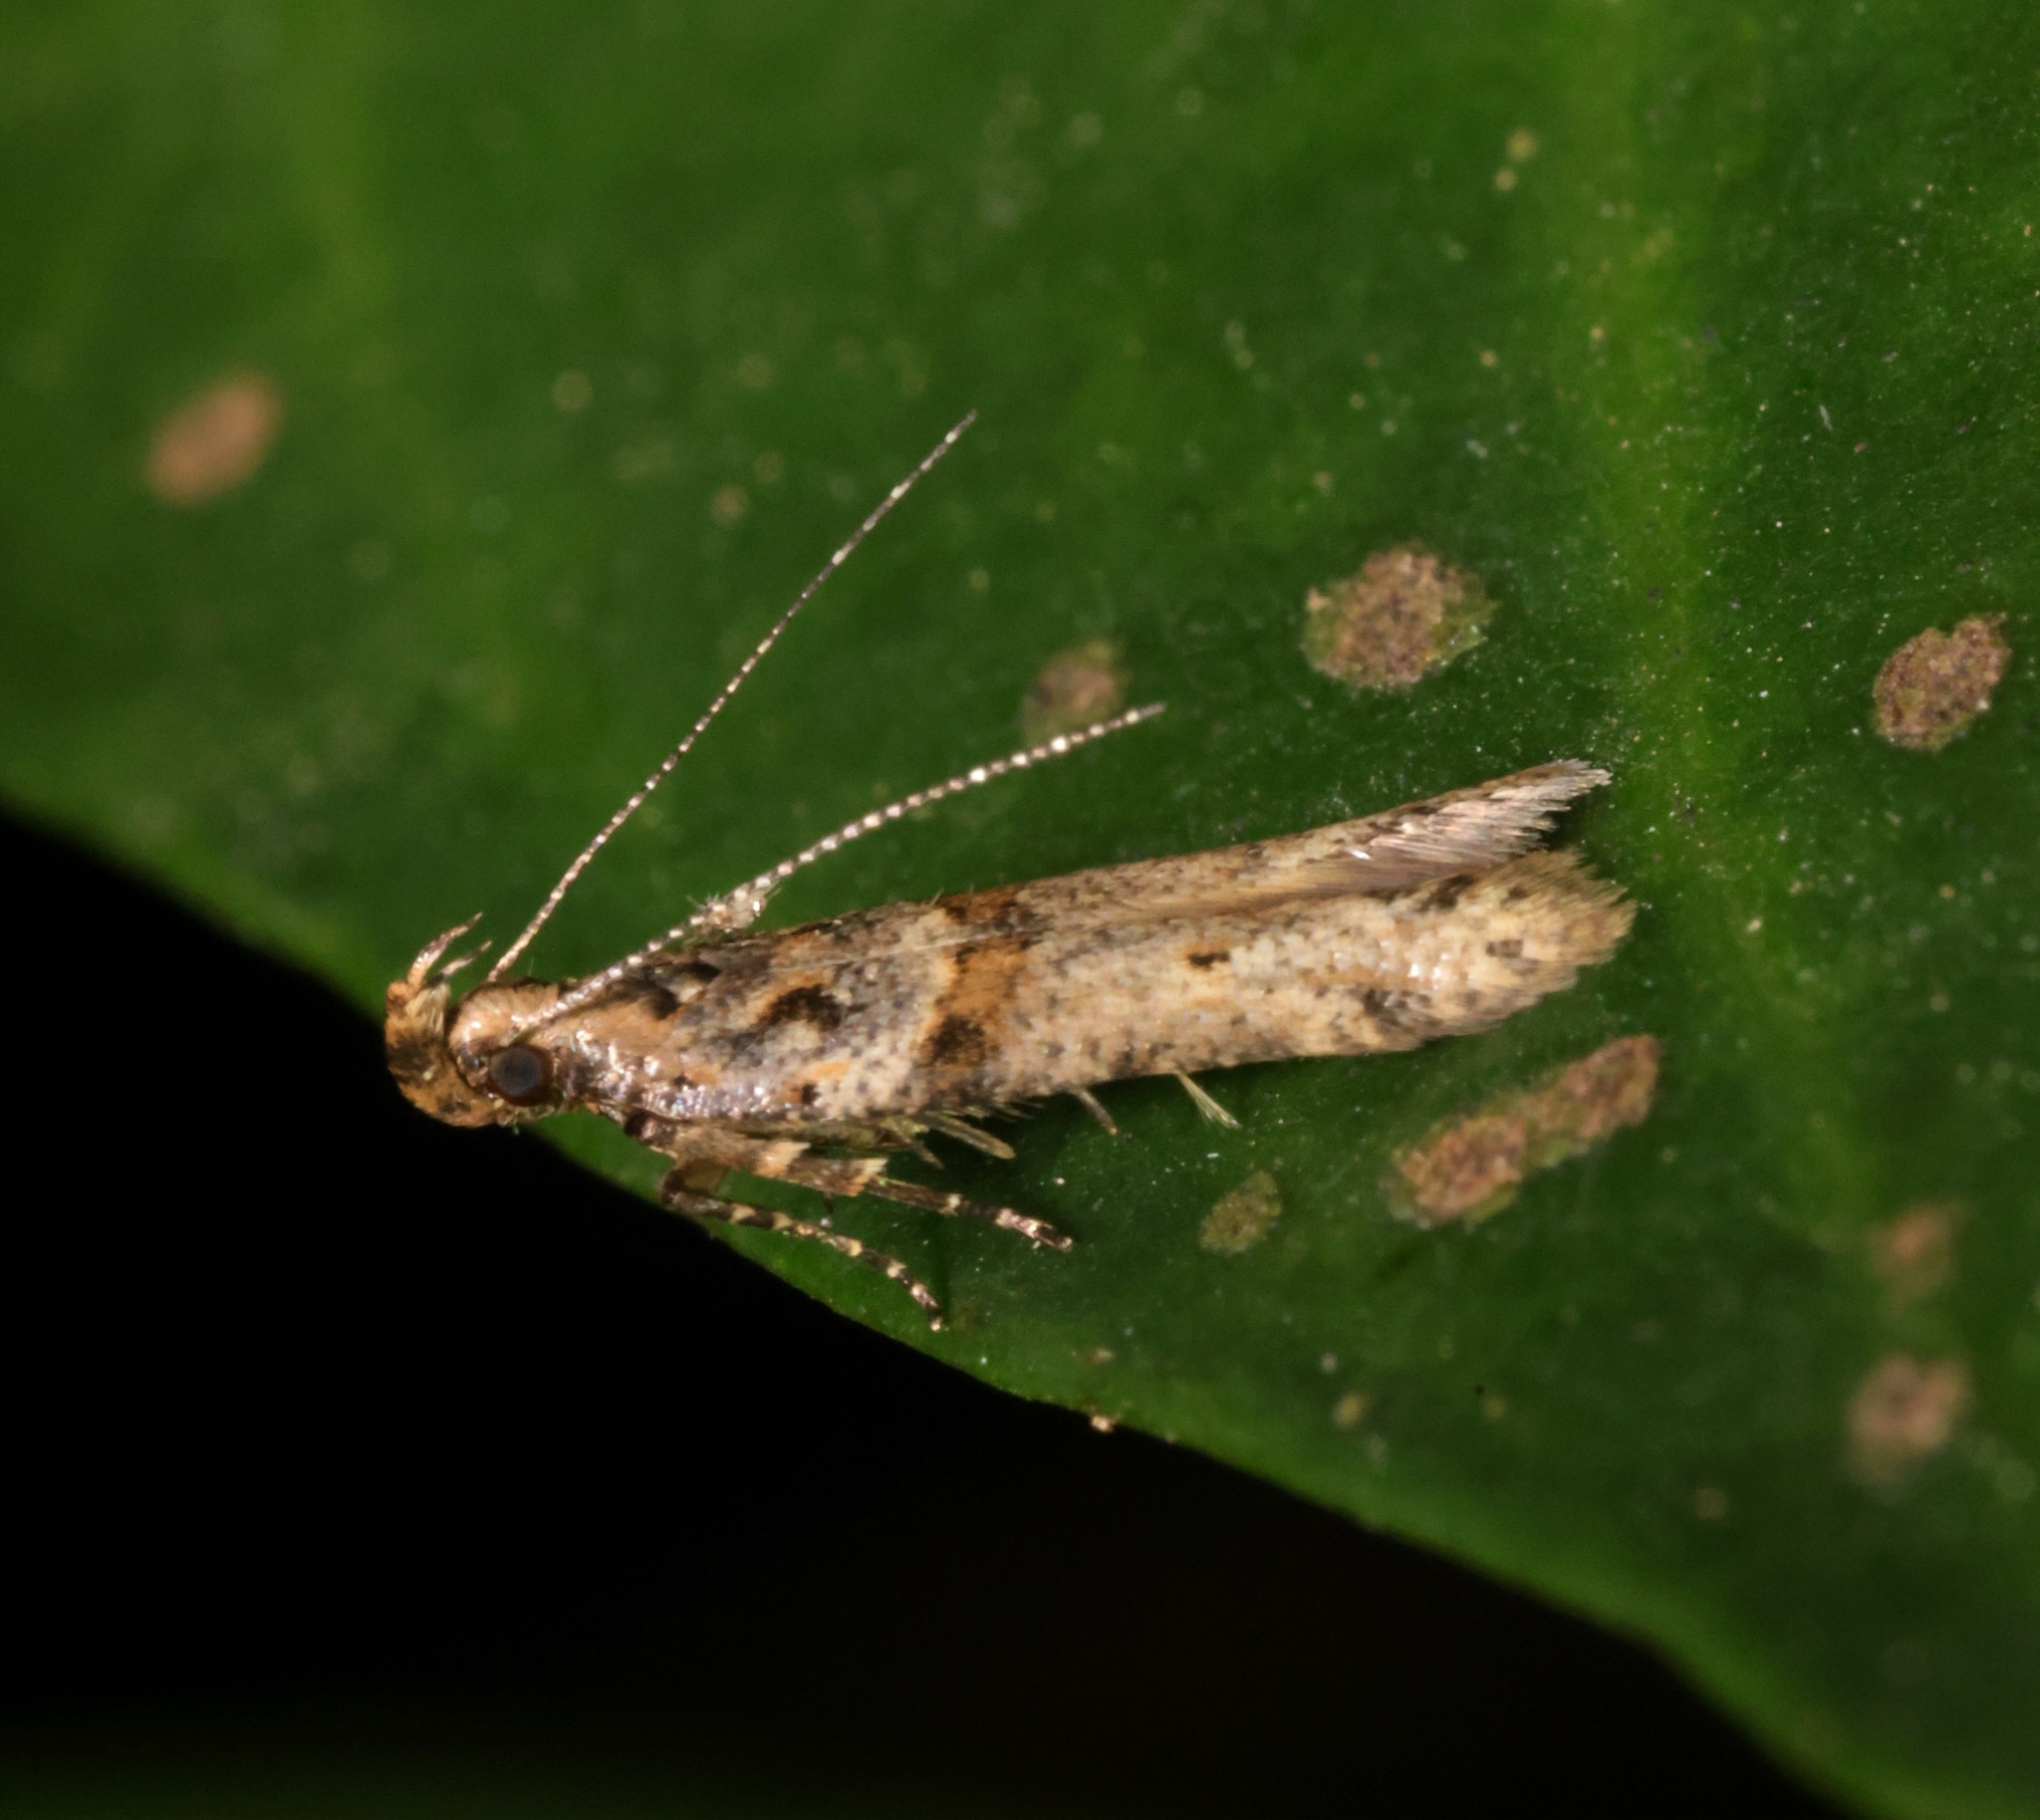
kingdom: Animalia
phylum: Arthropoda
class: Insecta
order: Lepidoptera
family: Gelechiidae
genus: Deltophora
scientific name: Deltophora polliniferens
